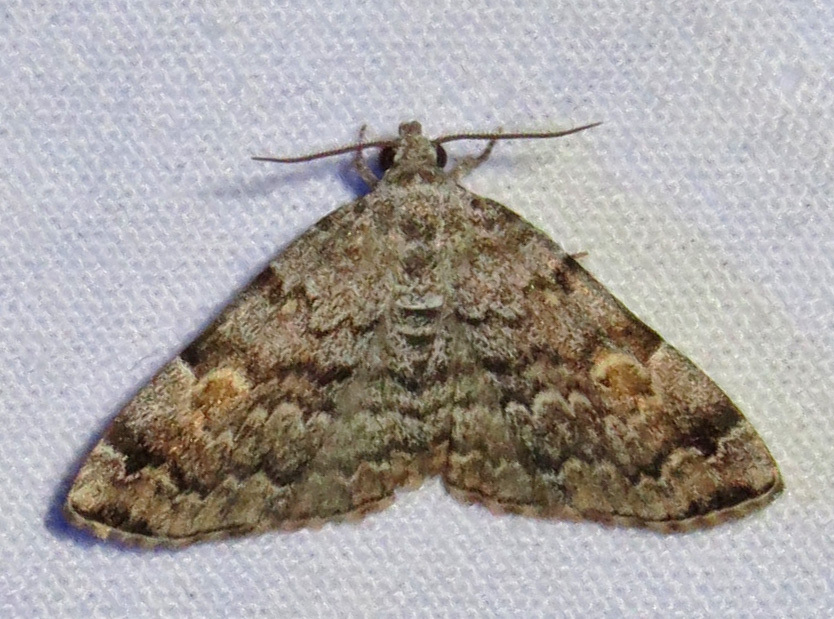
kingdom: Animalia
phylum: Arthropoda
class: Insecta
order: Lepidoptera
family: Erebidae
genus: Idia
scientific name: Idia americalis
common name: American idia moth
